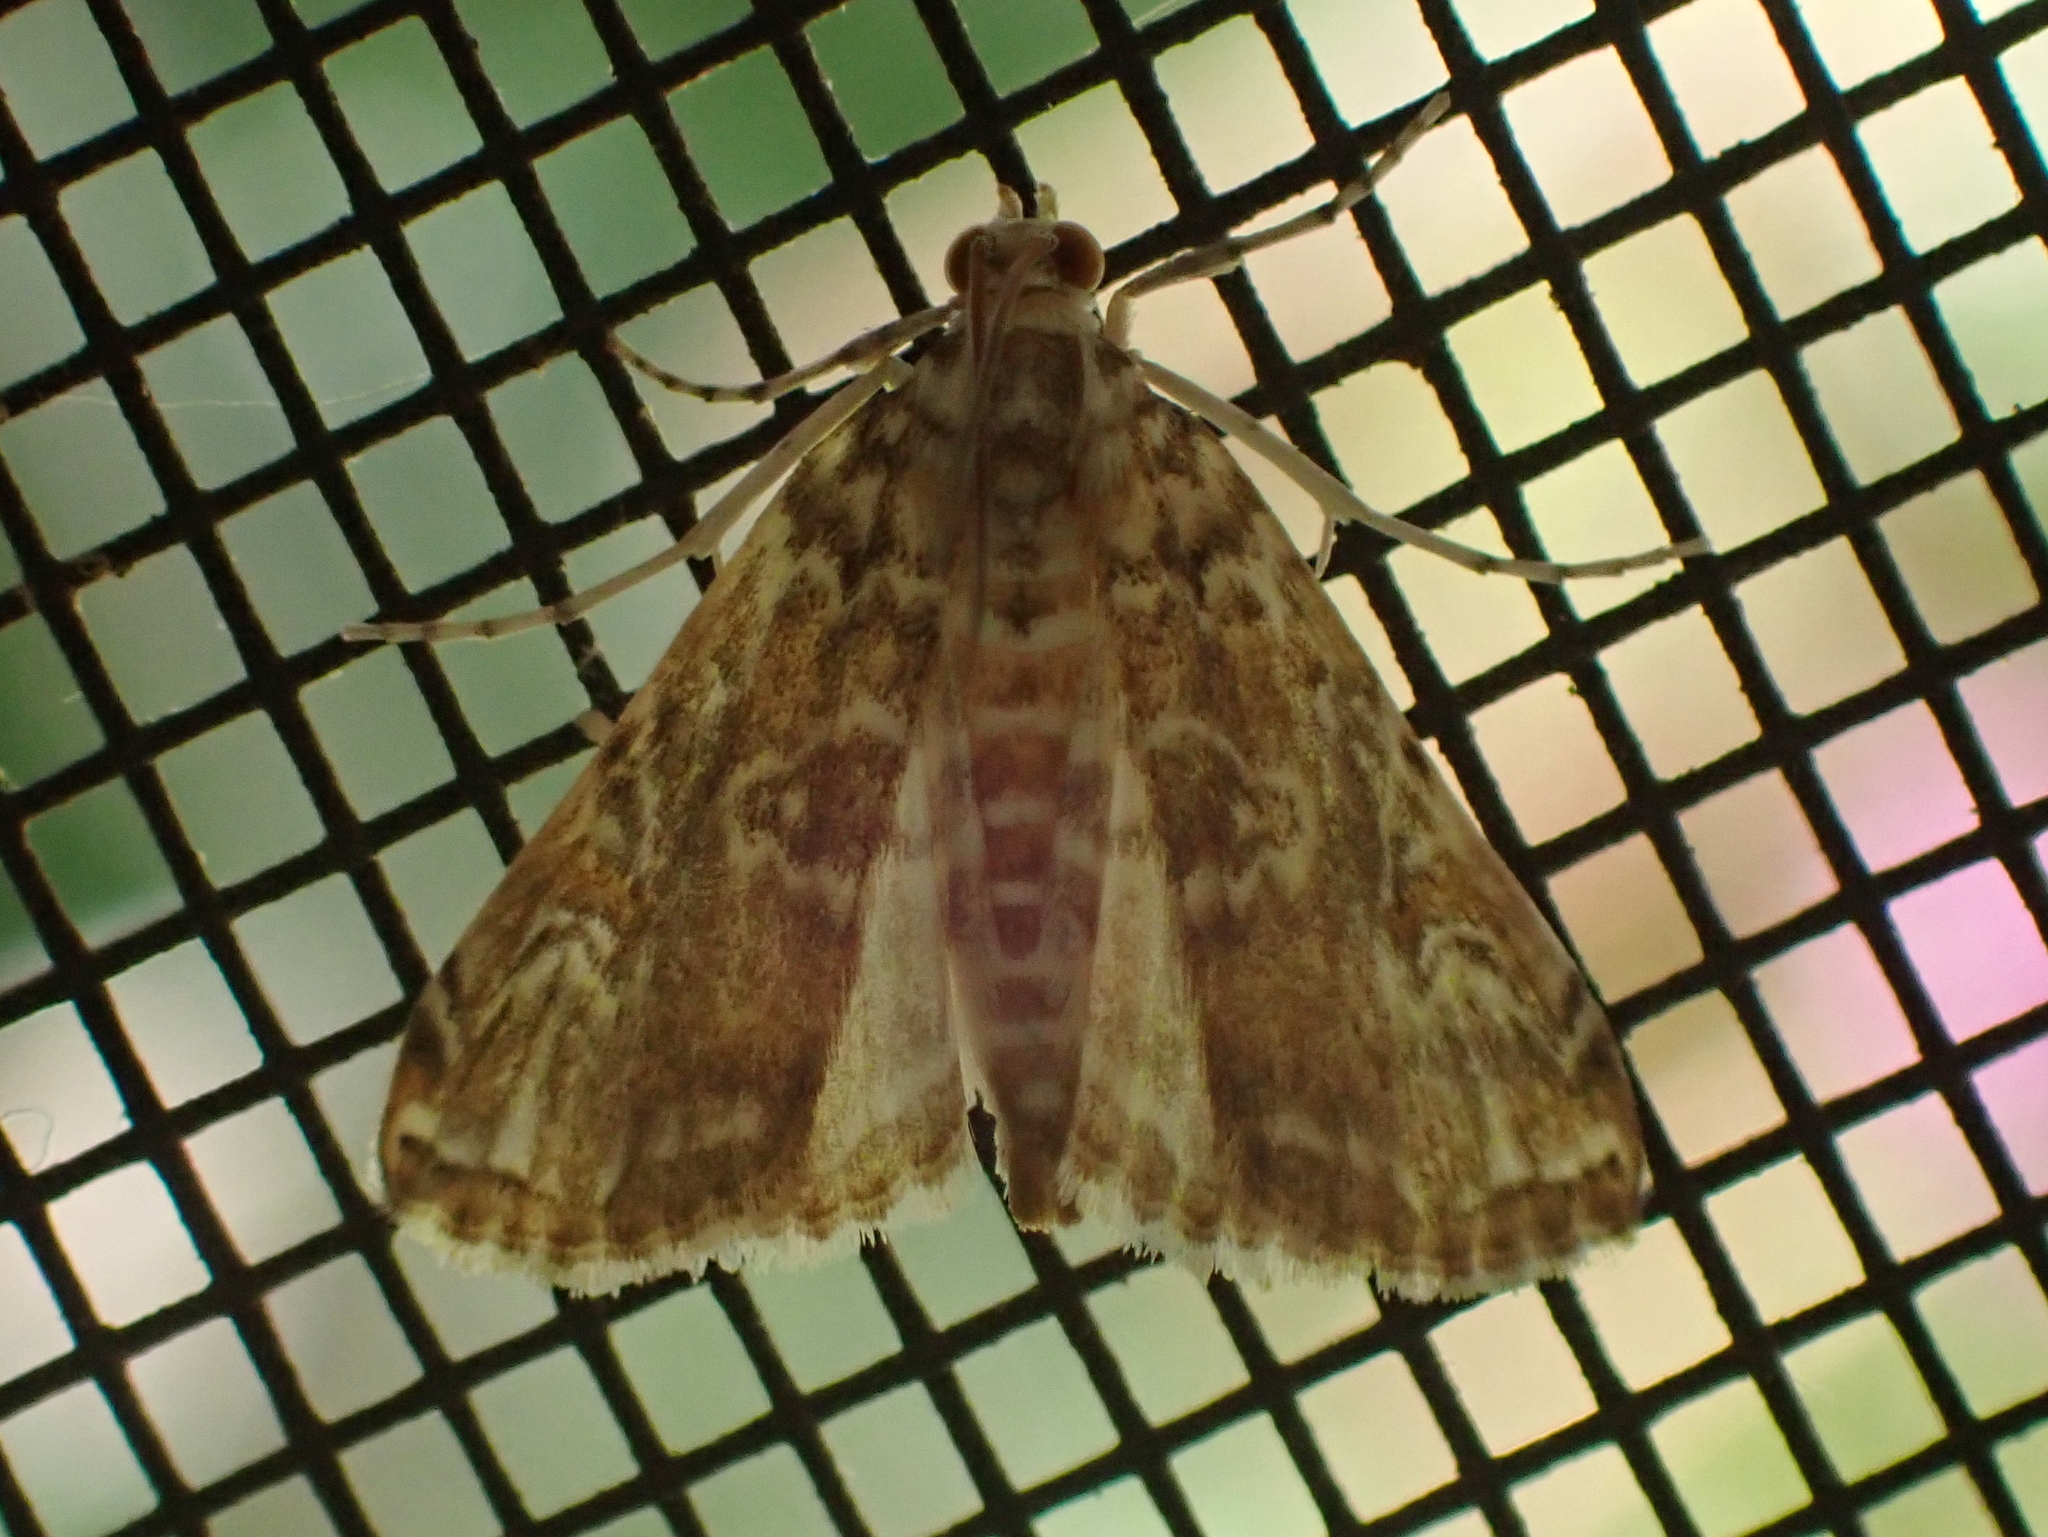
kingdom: Animalia
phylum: Arthropoda
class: Insecta
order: Lepidoptera
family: Crambidae
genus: Elophila
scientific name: Elophila gyralis
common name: Waterlily borer moth
